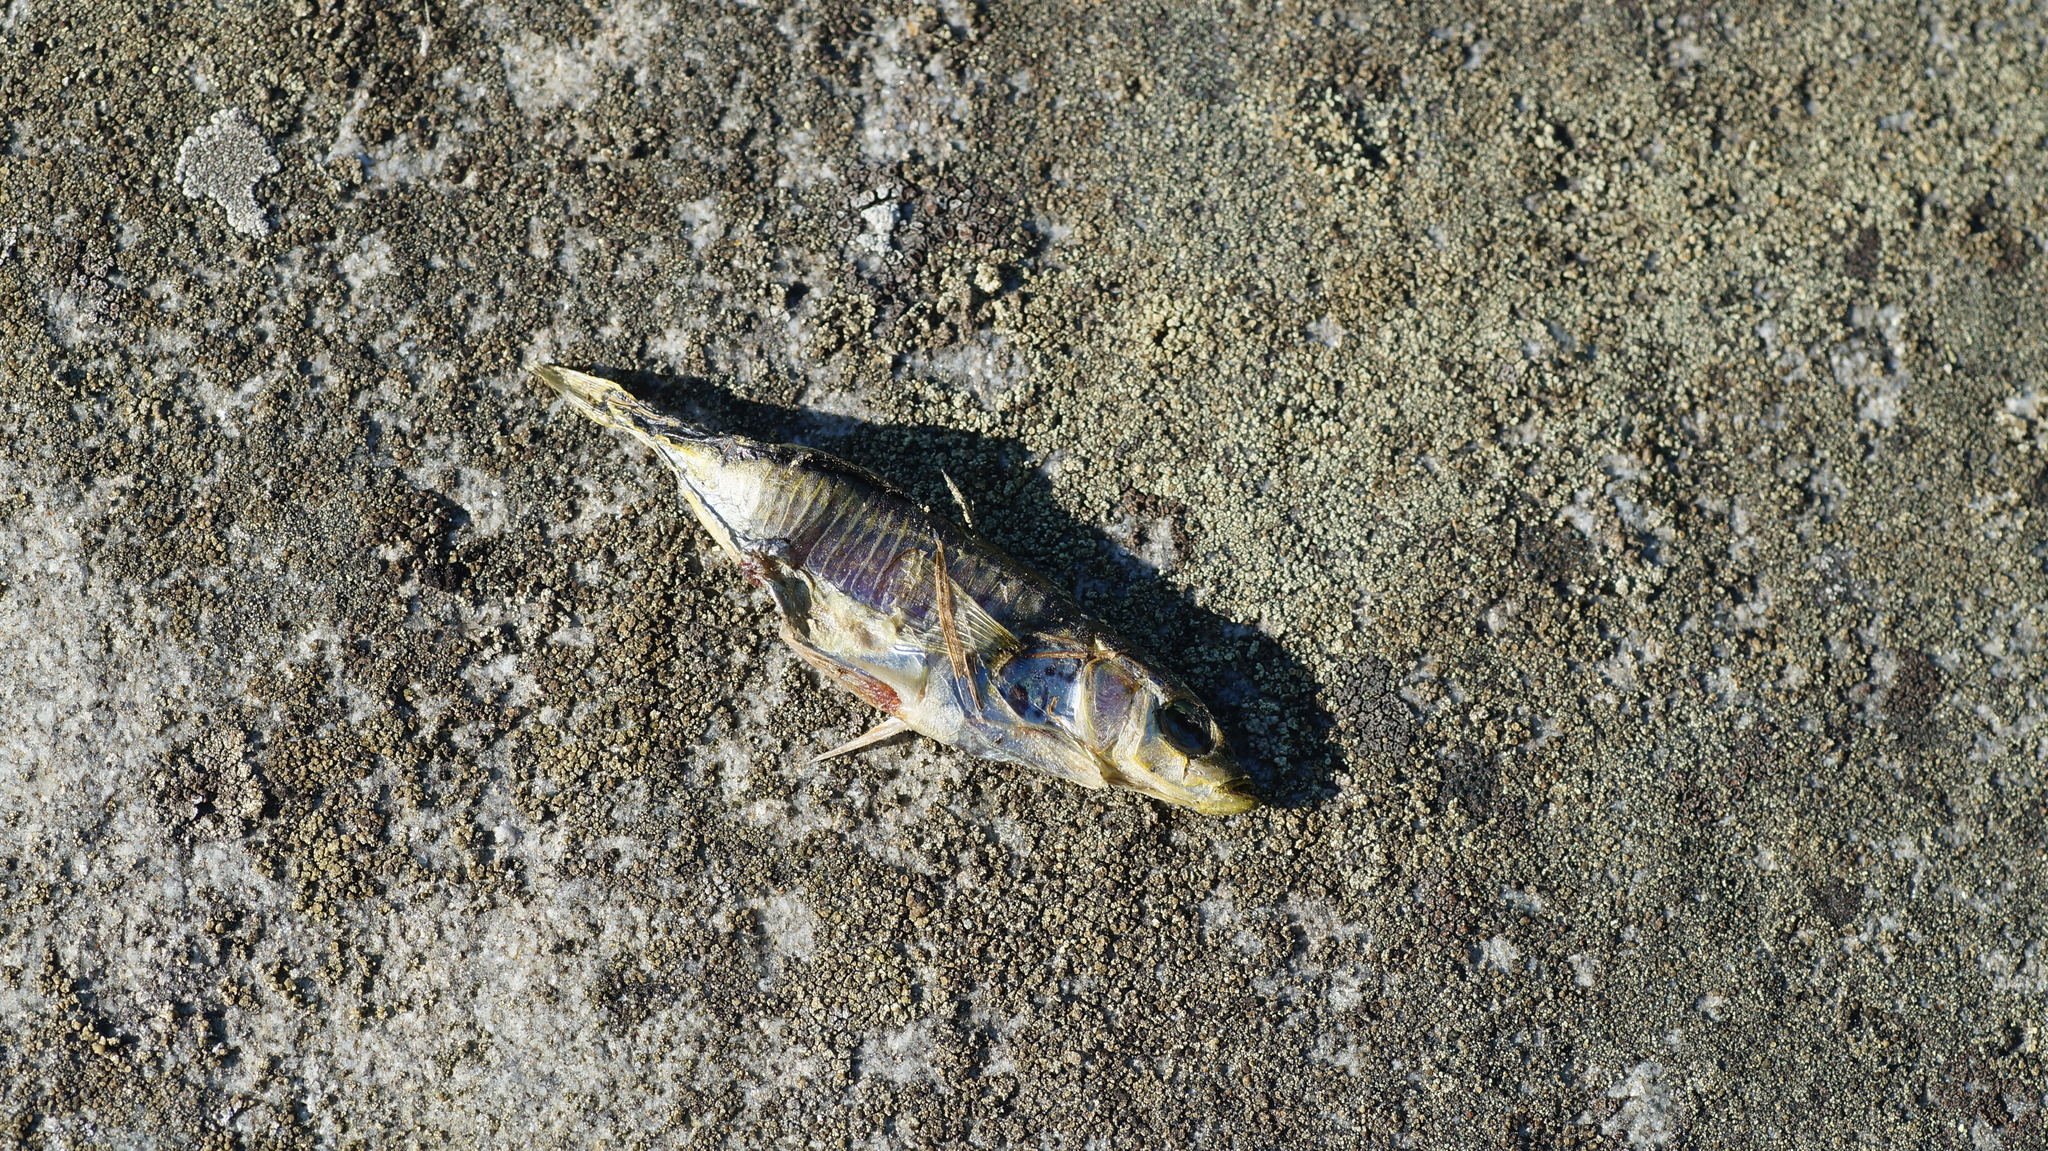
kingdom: Animalia
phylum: Chordata
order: Gasterosteiformes
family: Gasterosteidae
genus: Gasterosteus
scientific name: Gasterosteus aculeatus
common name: Three-spined stickleback
